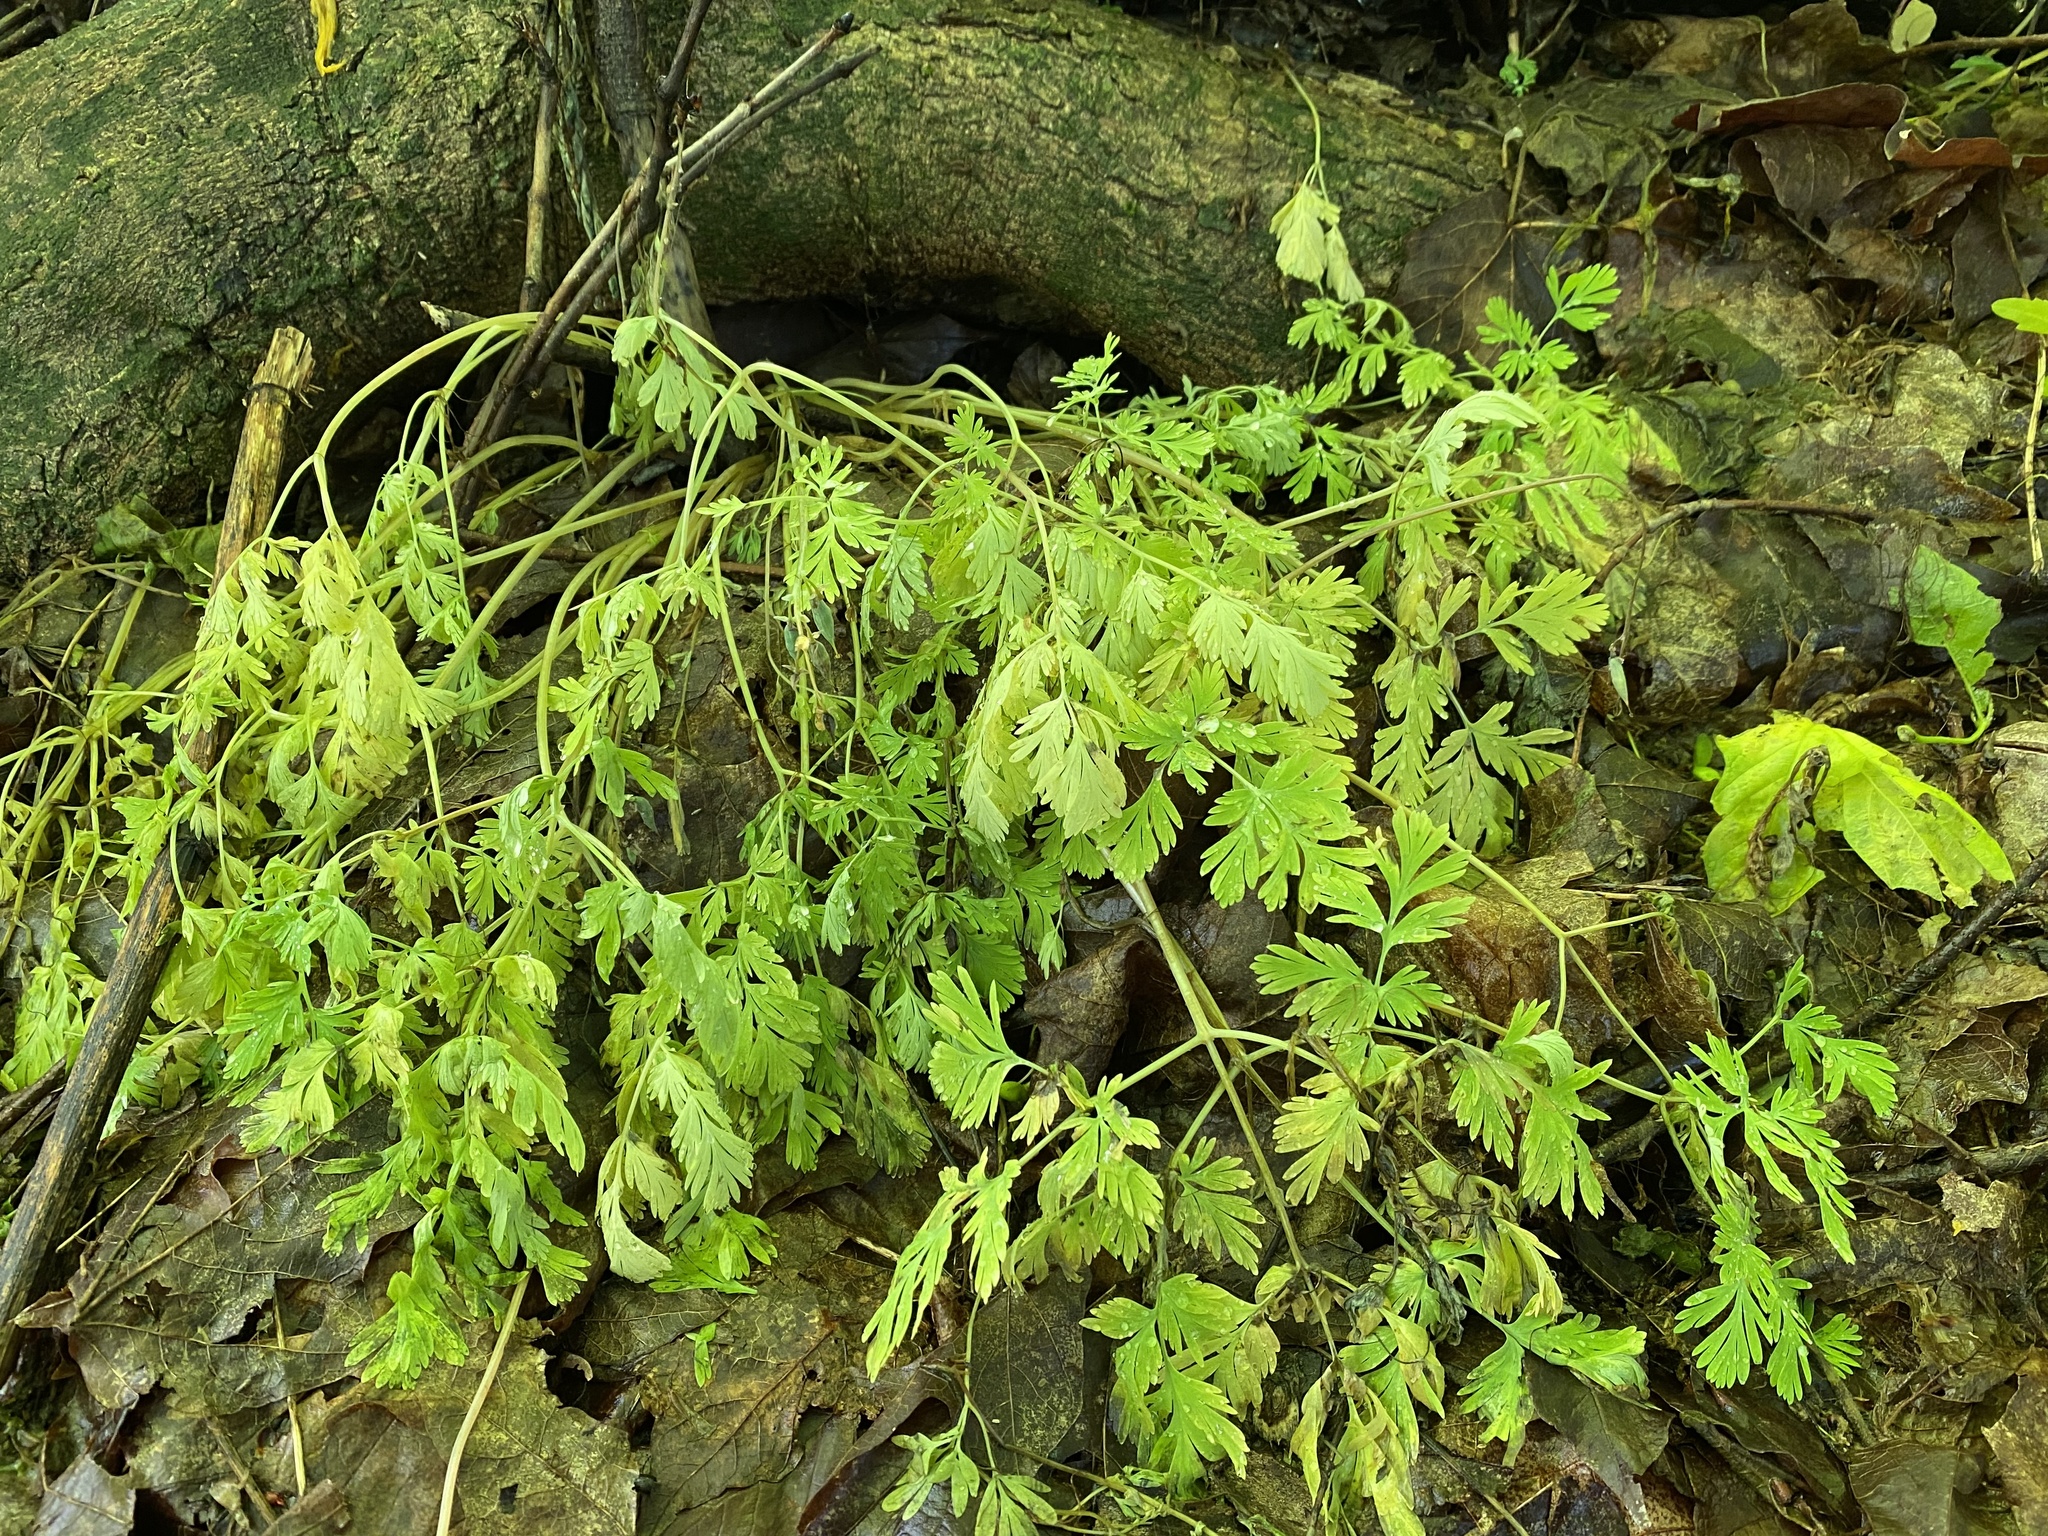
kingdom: Plantae
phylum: Tracheophyta
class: Magnoliopsida
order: Ranunculales
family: Papaveraceae
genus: Dicentra
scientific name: Dicentra cucullaria
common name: Dutchman's breeches
